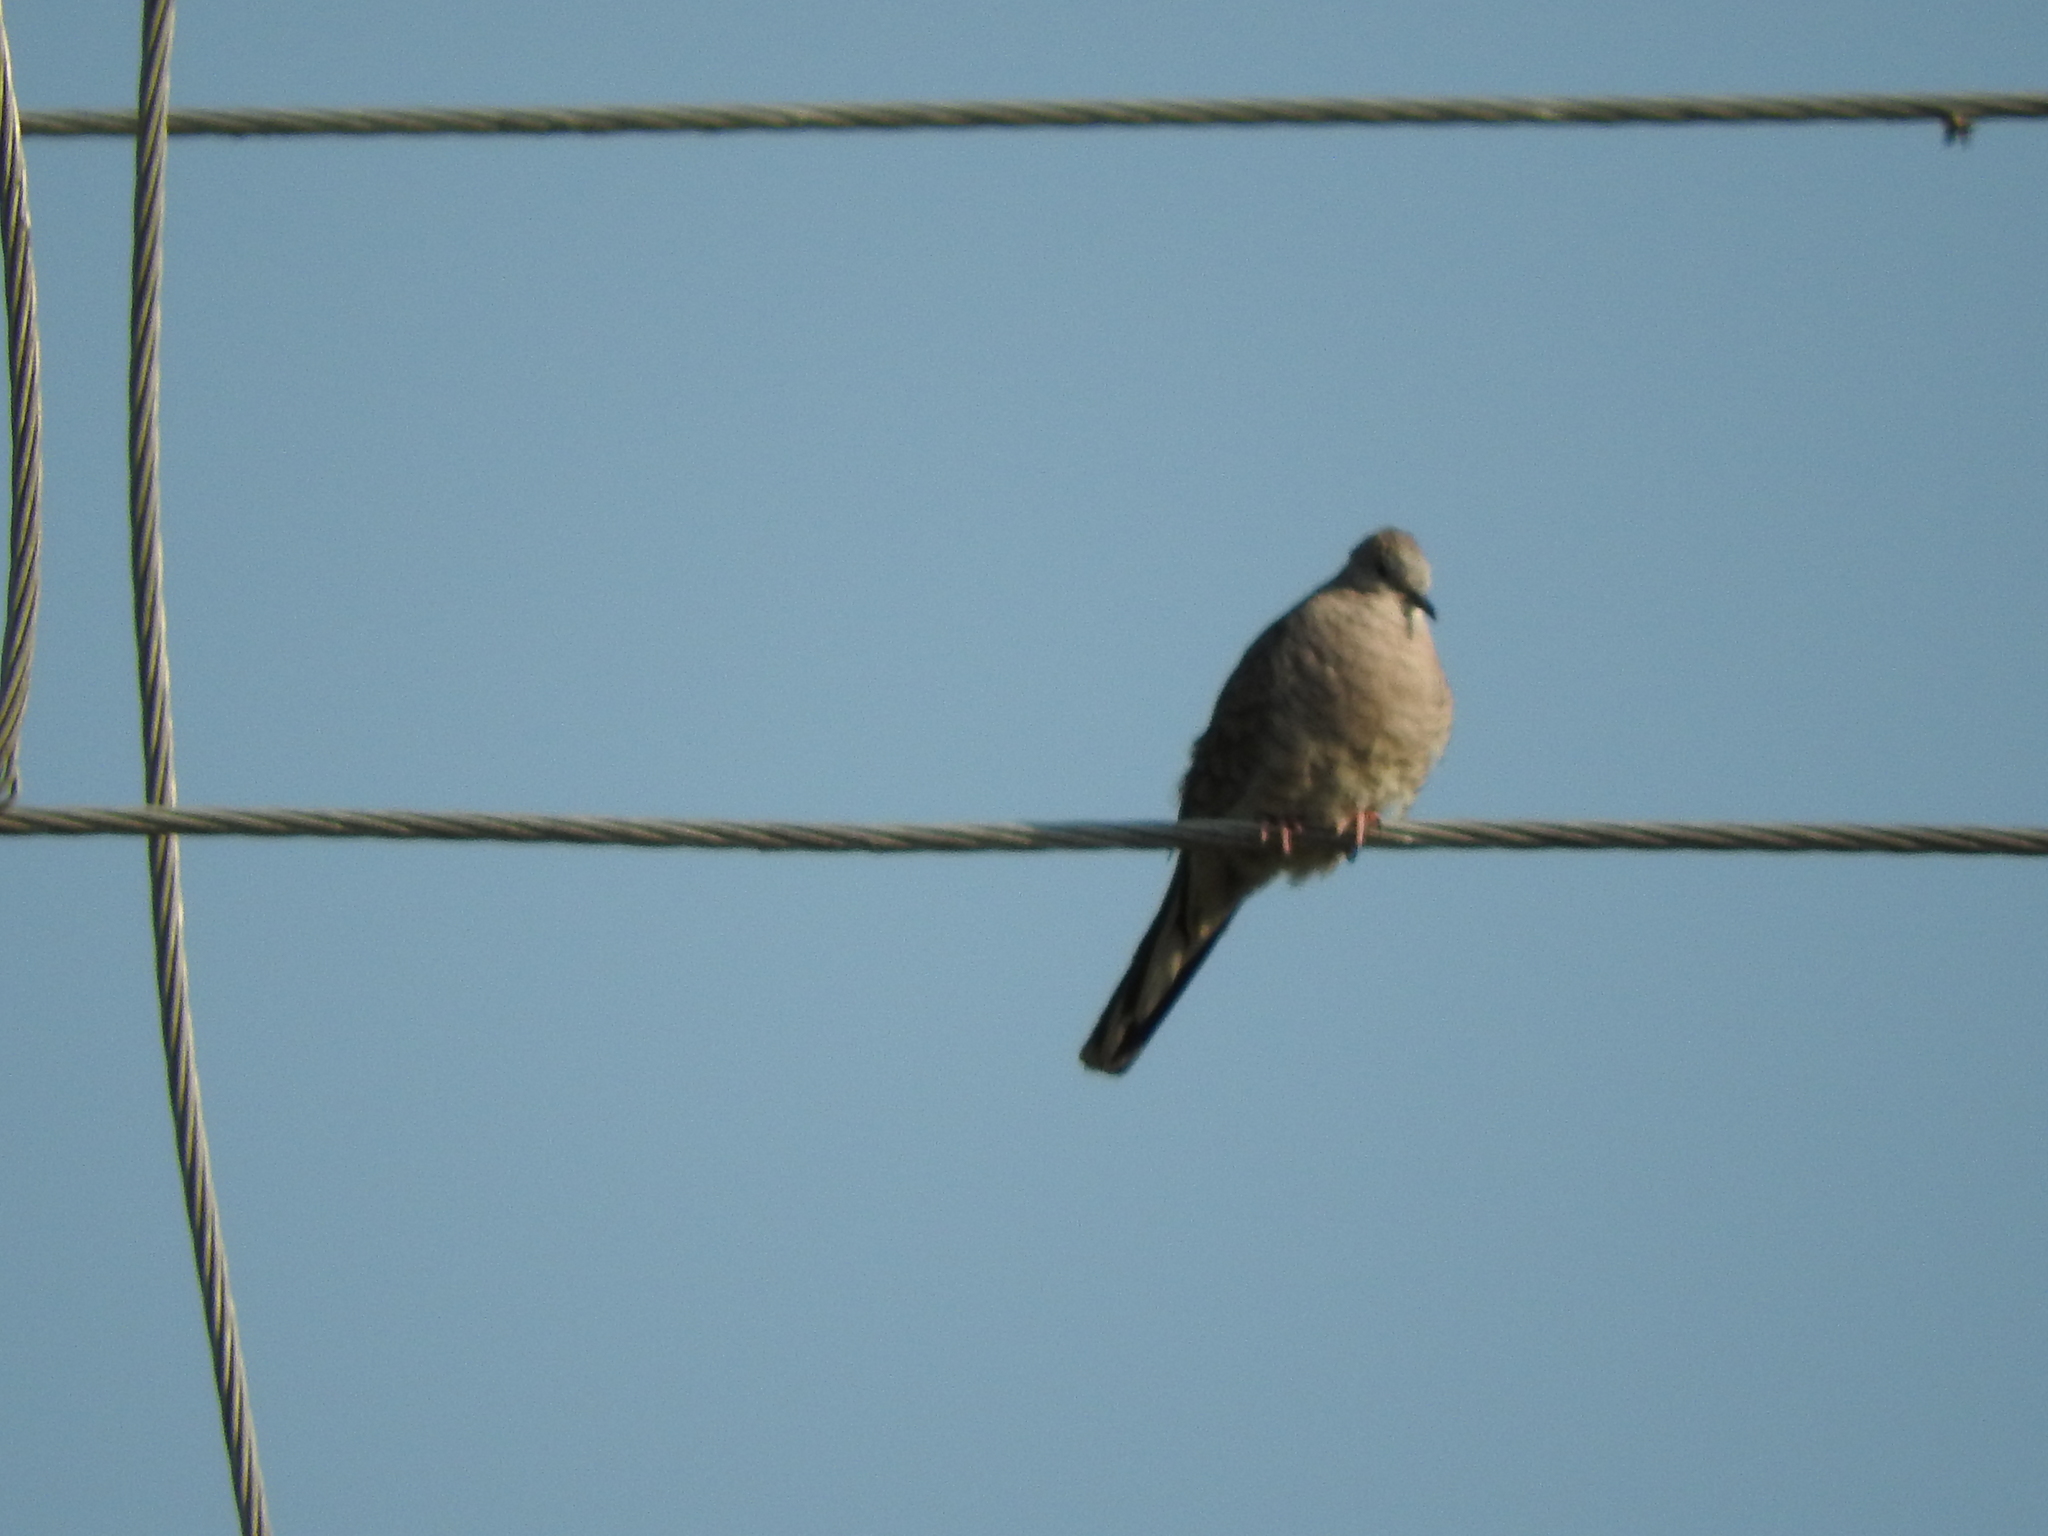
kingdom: Animalia
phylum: Chordata
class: Aves
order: Columbiformes
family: Columbidae
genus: Columbina
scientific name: Columbina inca
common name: Inca dove
